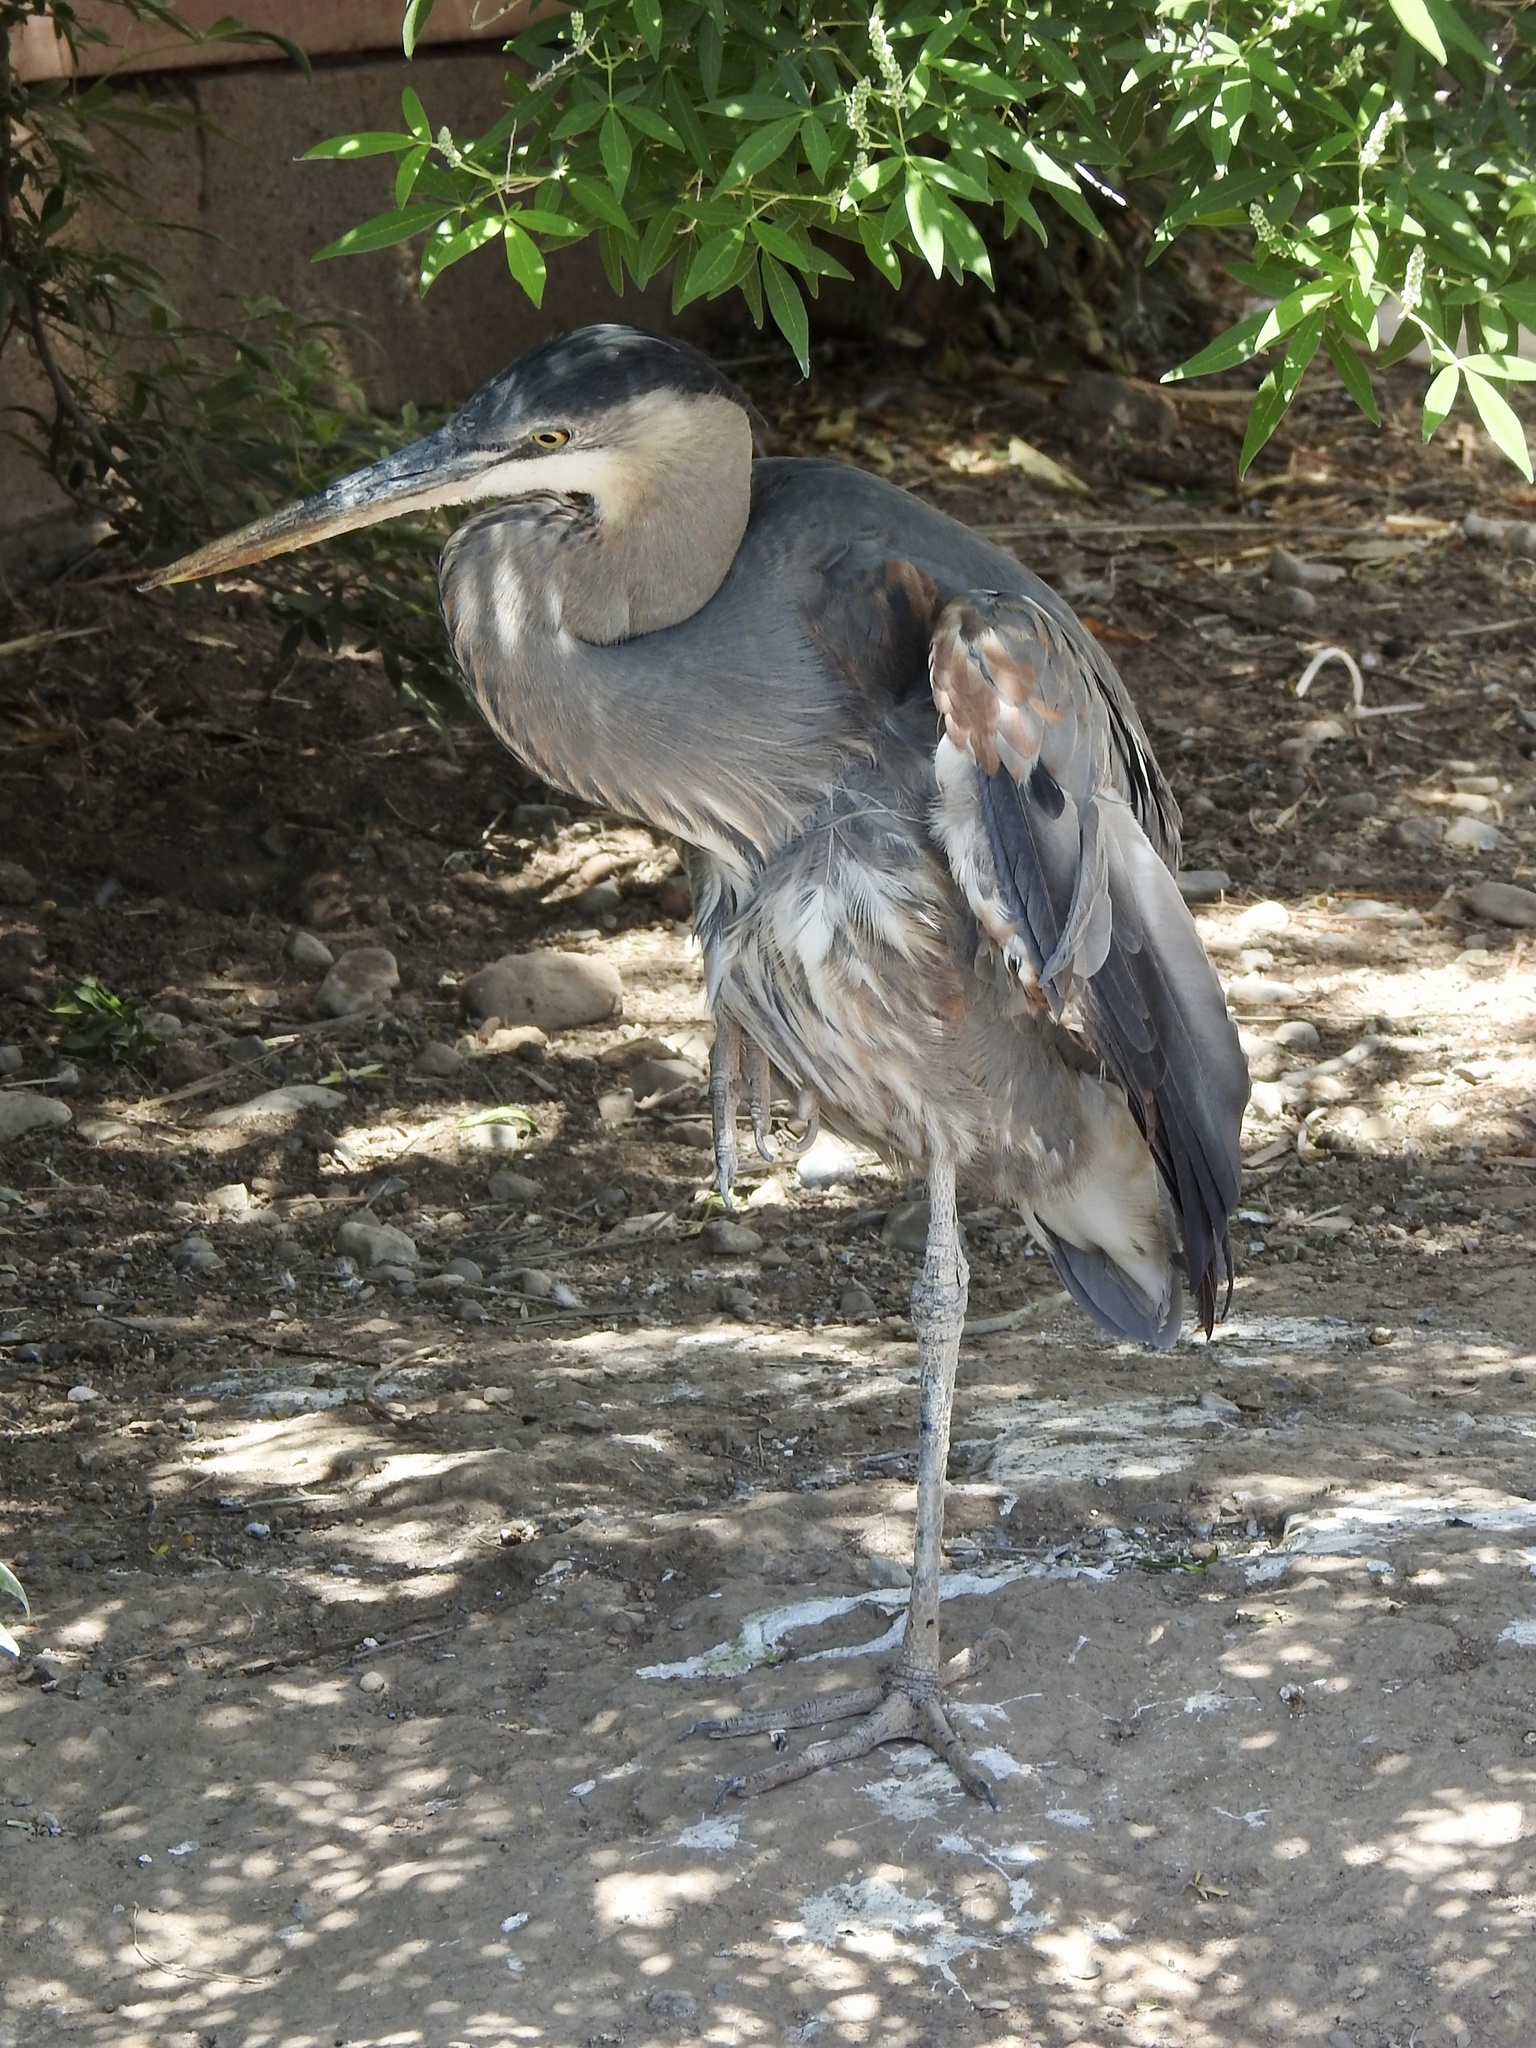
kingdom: Animalia
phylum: Chordata
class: Aves
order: Pelecaniformes
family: Ardeidae
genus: Ardea
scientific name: Ardea herodias
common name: Great blue heron
